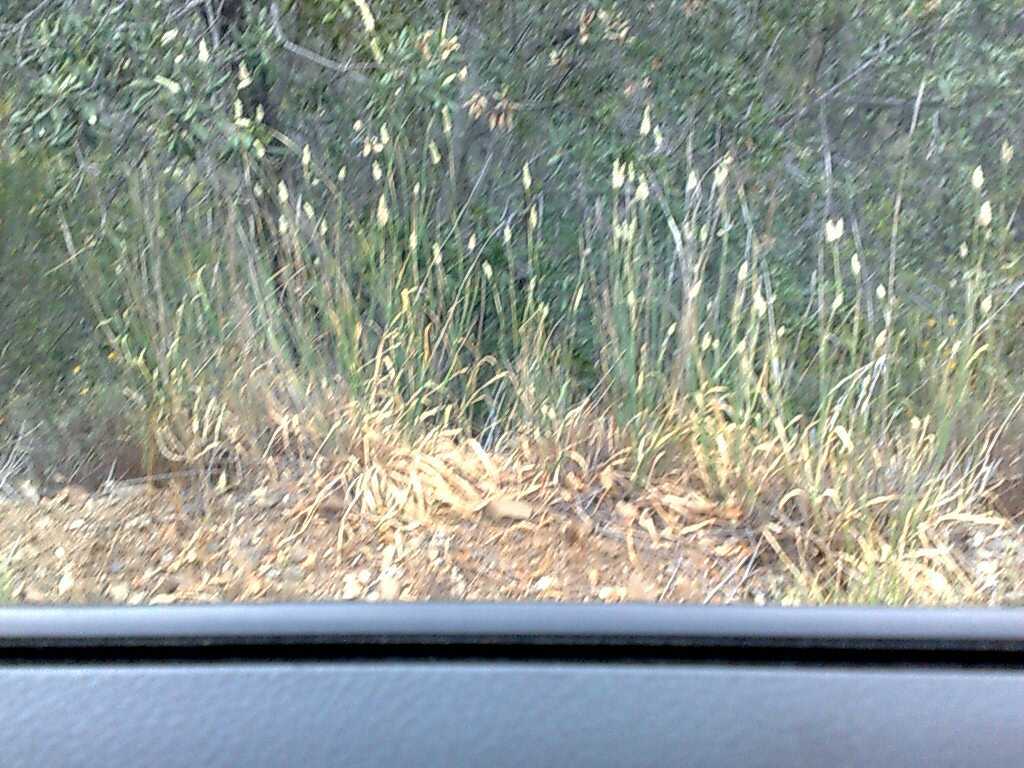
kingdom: Plantae
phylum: Tracheophyta
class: Liliopsida
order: Poales
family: Poaceae
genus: Phalaris
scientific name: Phalaris aquatica
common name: Bulbous canary-grass
